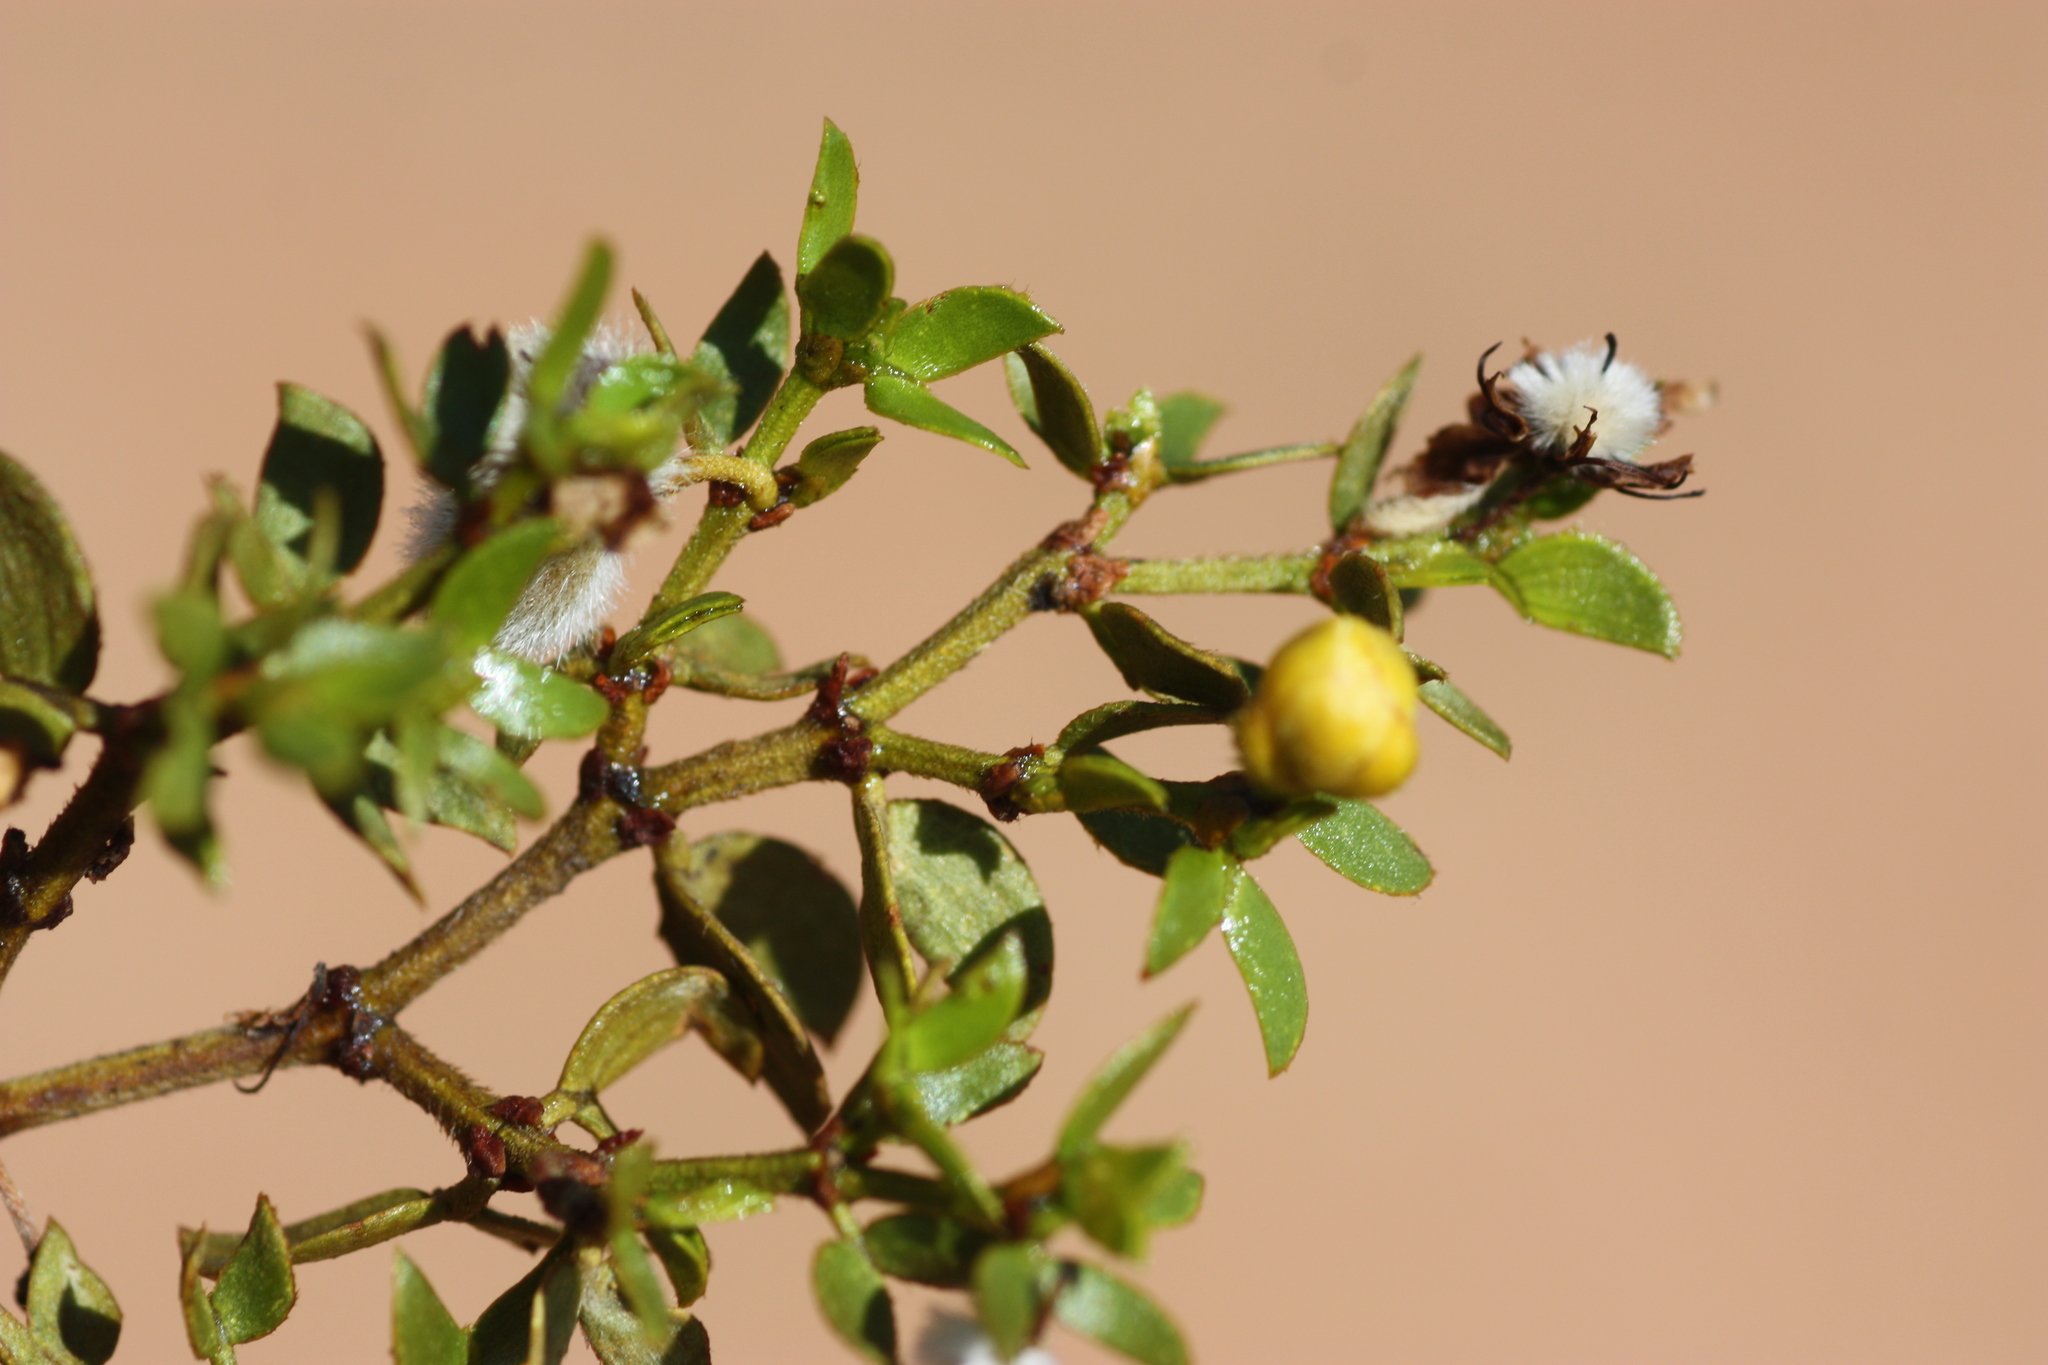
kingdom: Plantae
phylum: Tracheophyta
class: Magnoliopsida
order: Zygophyllales
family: Zygophyllaceae
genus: Larrea
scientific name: Larrea tridentata
